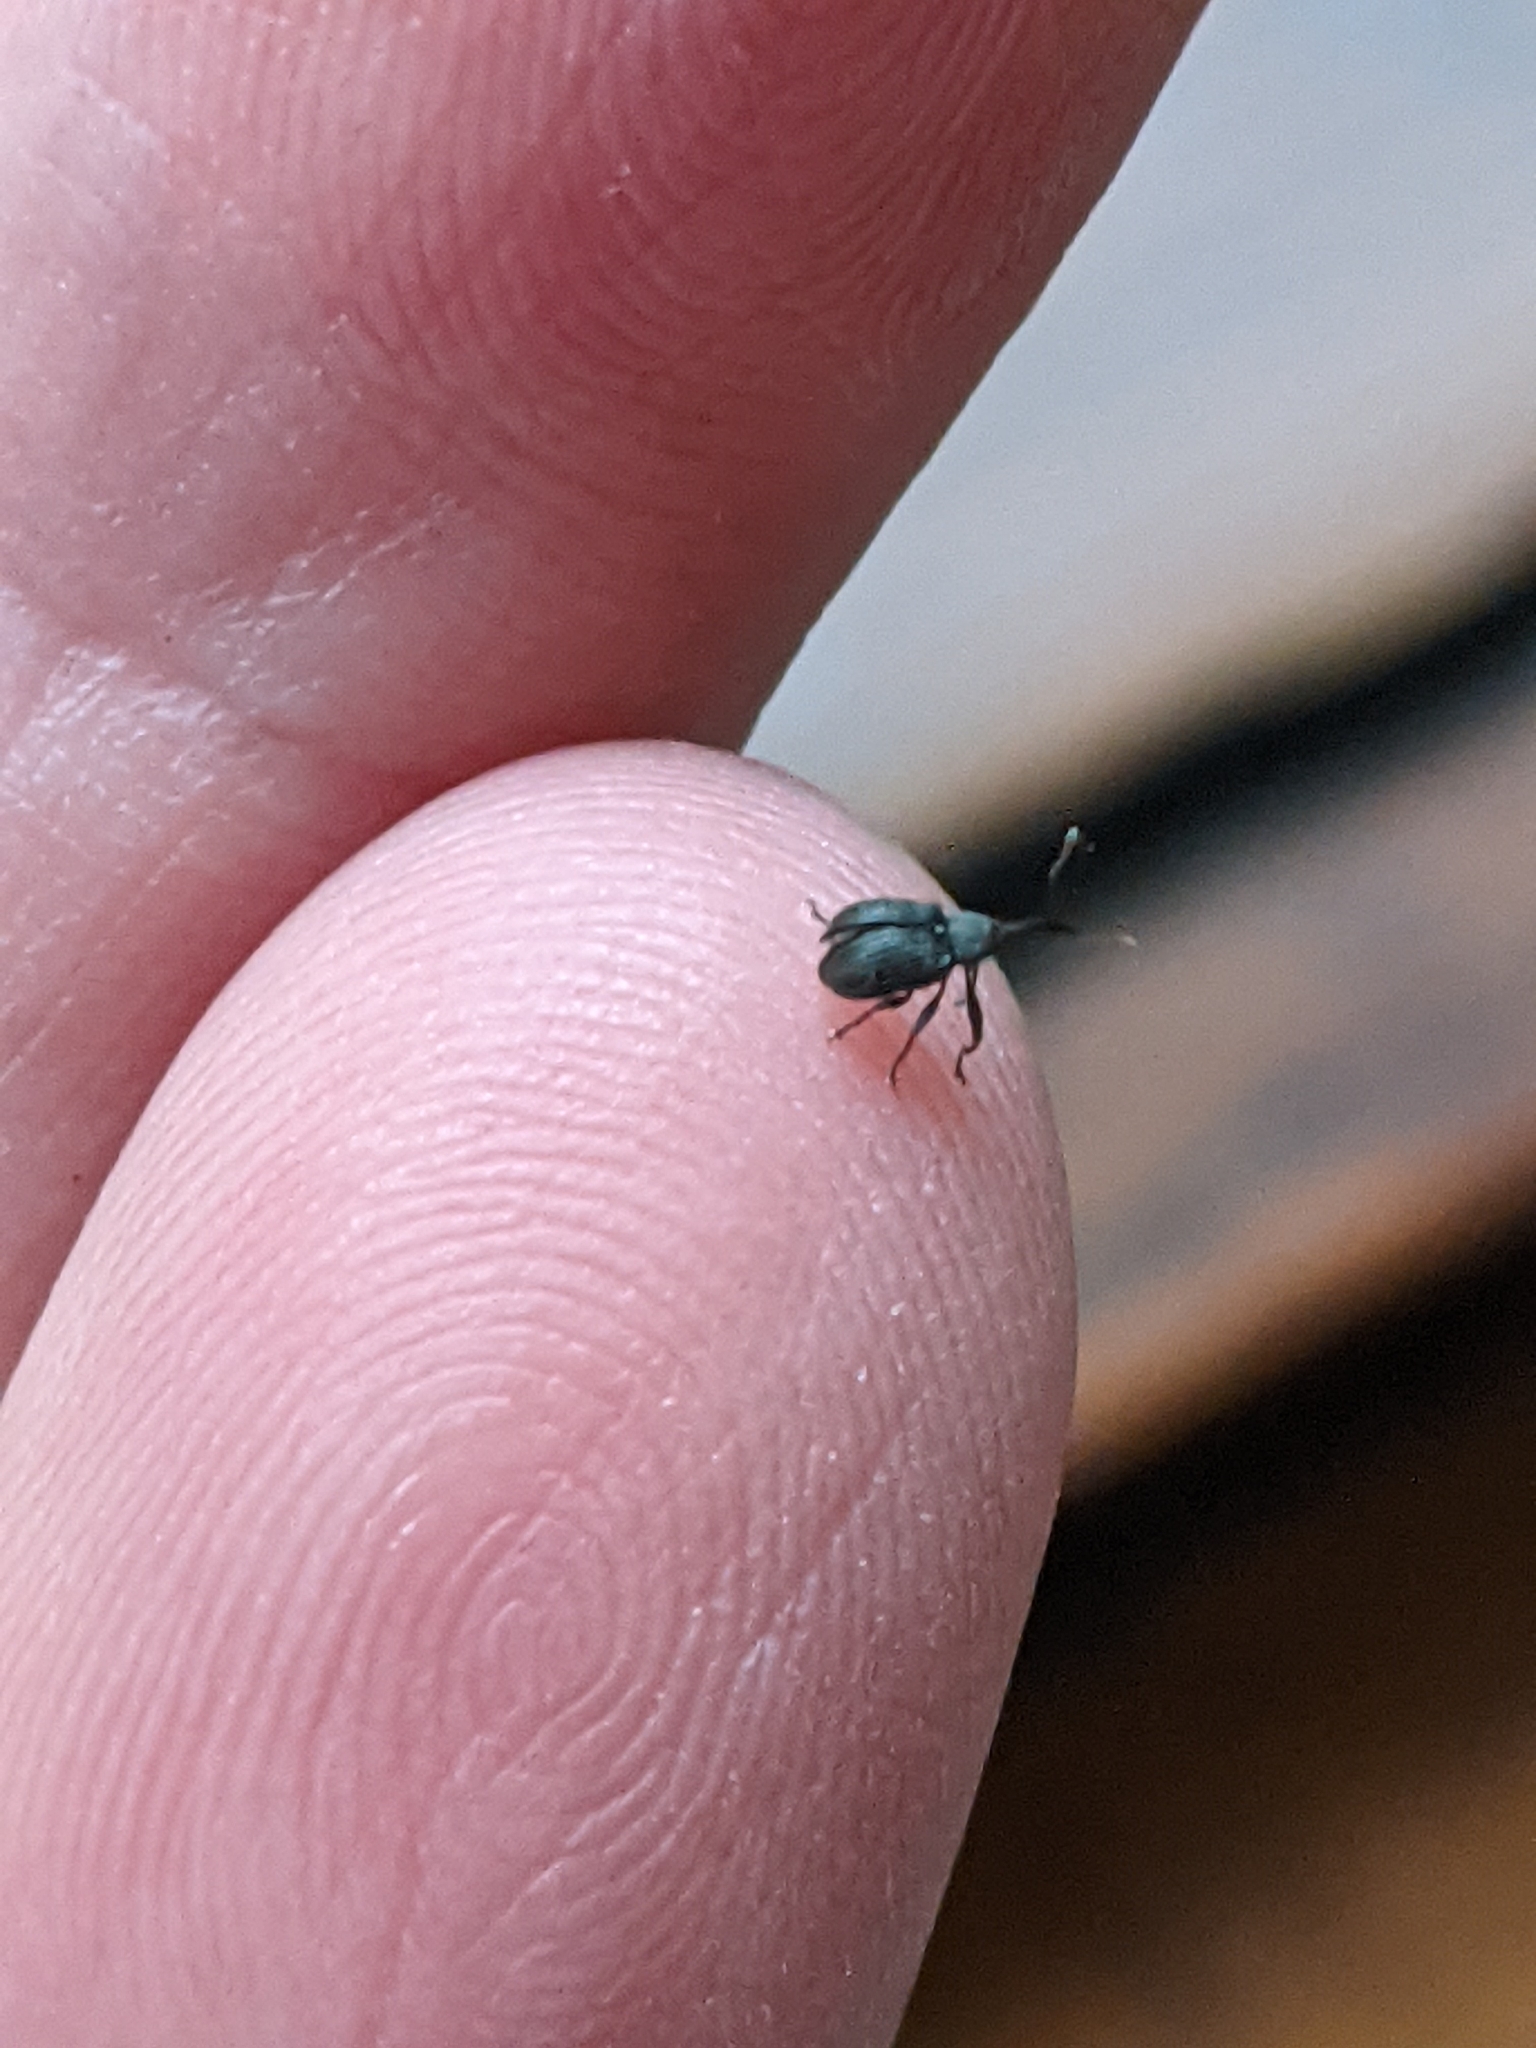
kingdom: Animalia
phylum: Arthropoda
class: Insecta
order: Coleoptera
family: Curculionidae
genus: Anthonomus
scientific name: Anthonomus rubi
